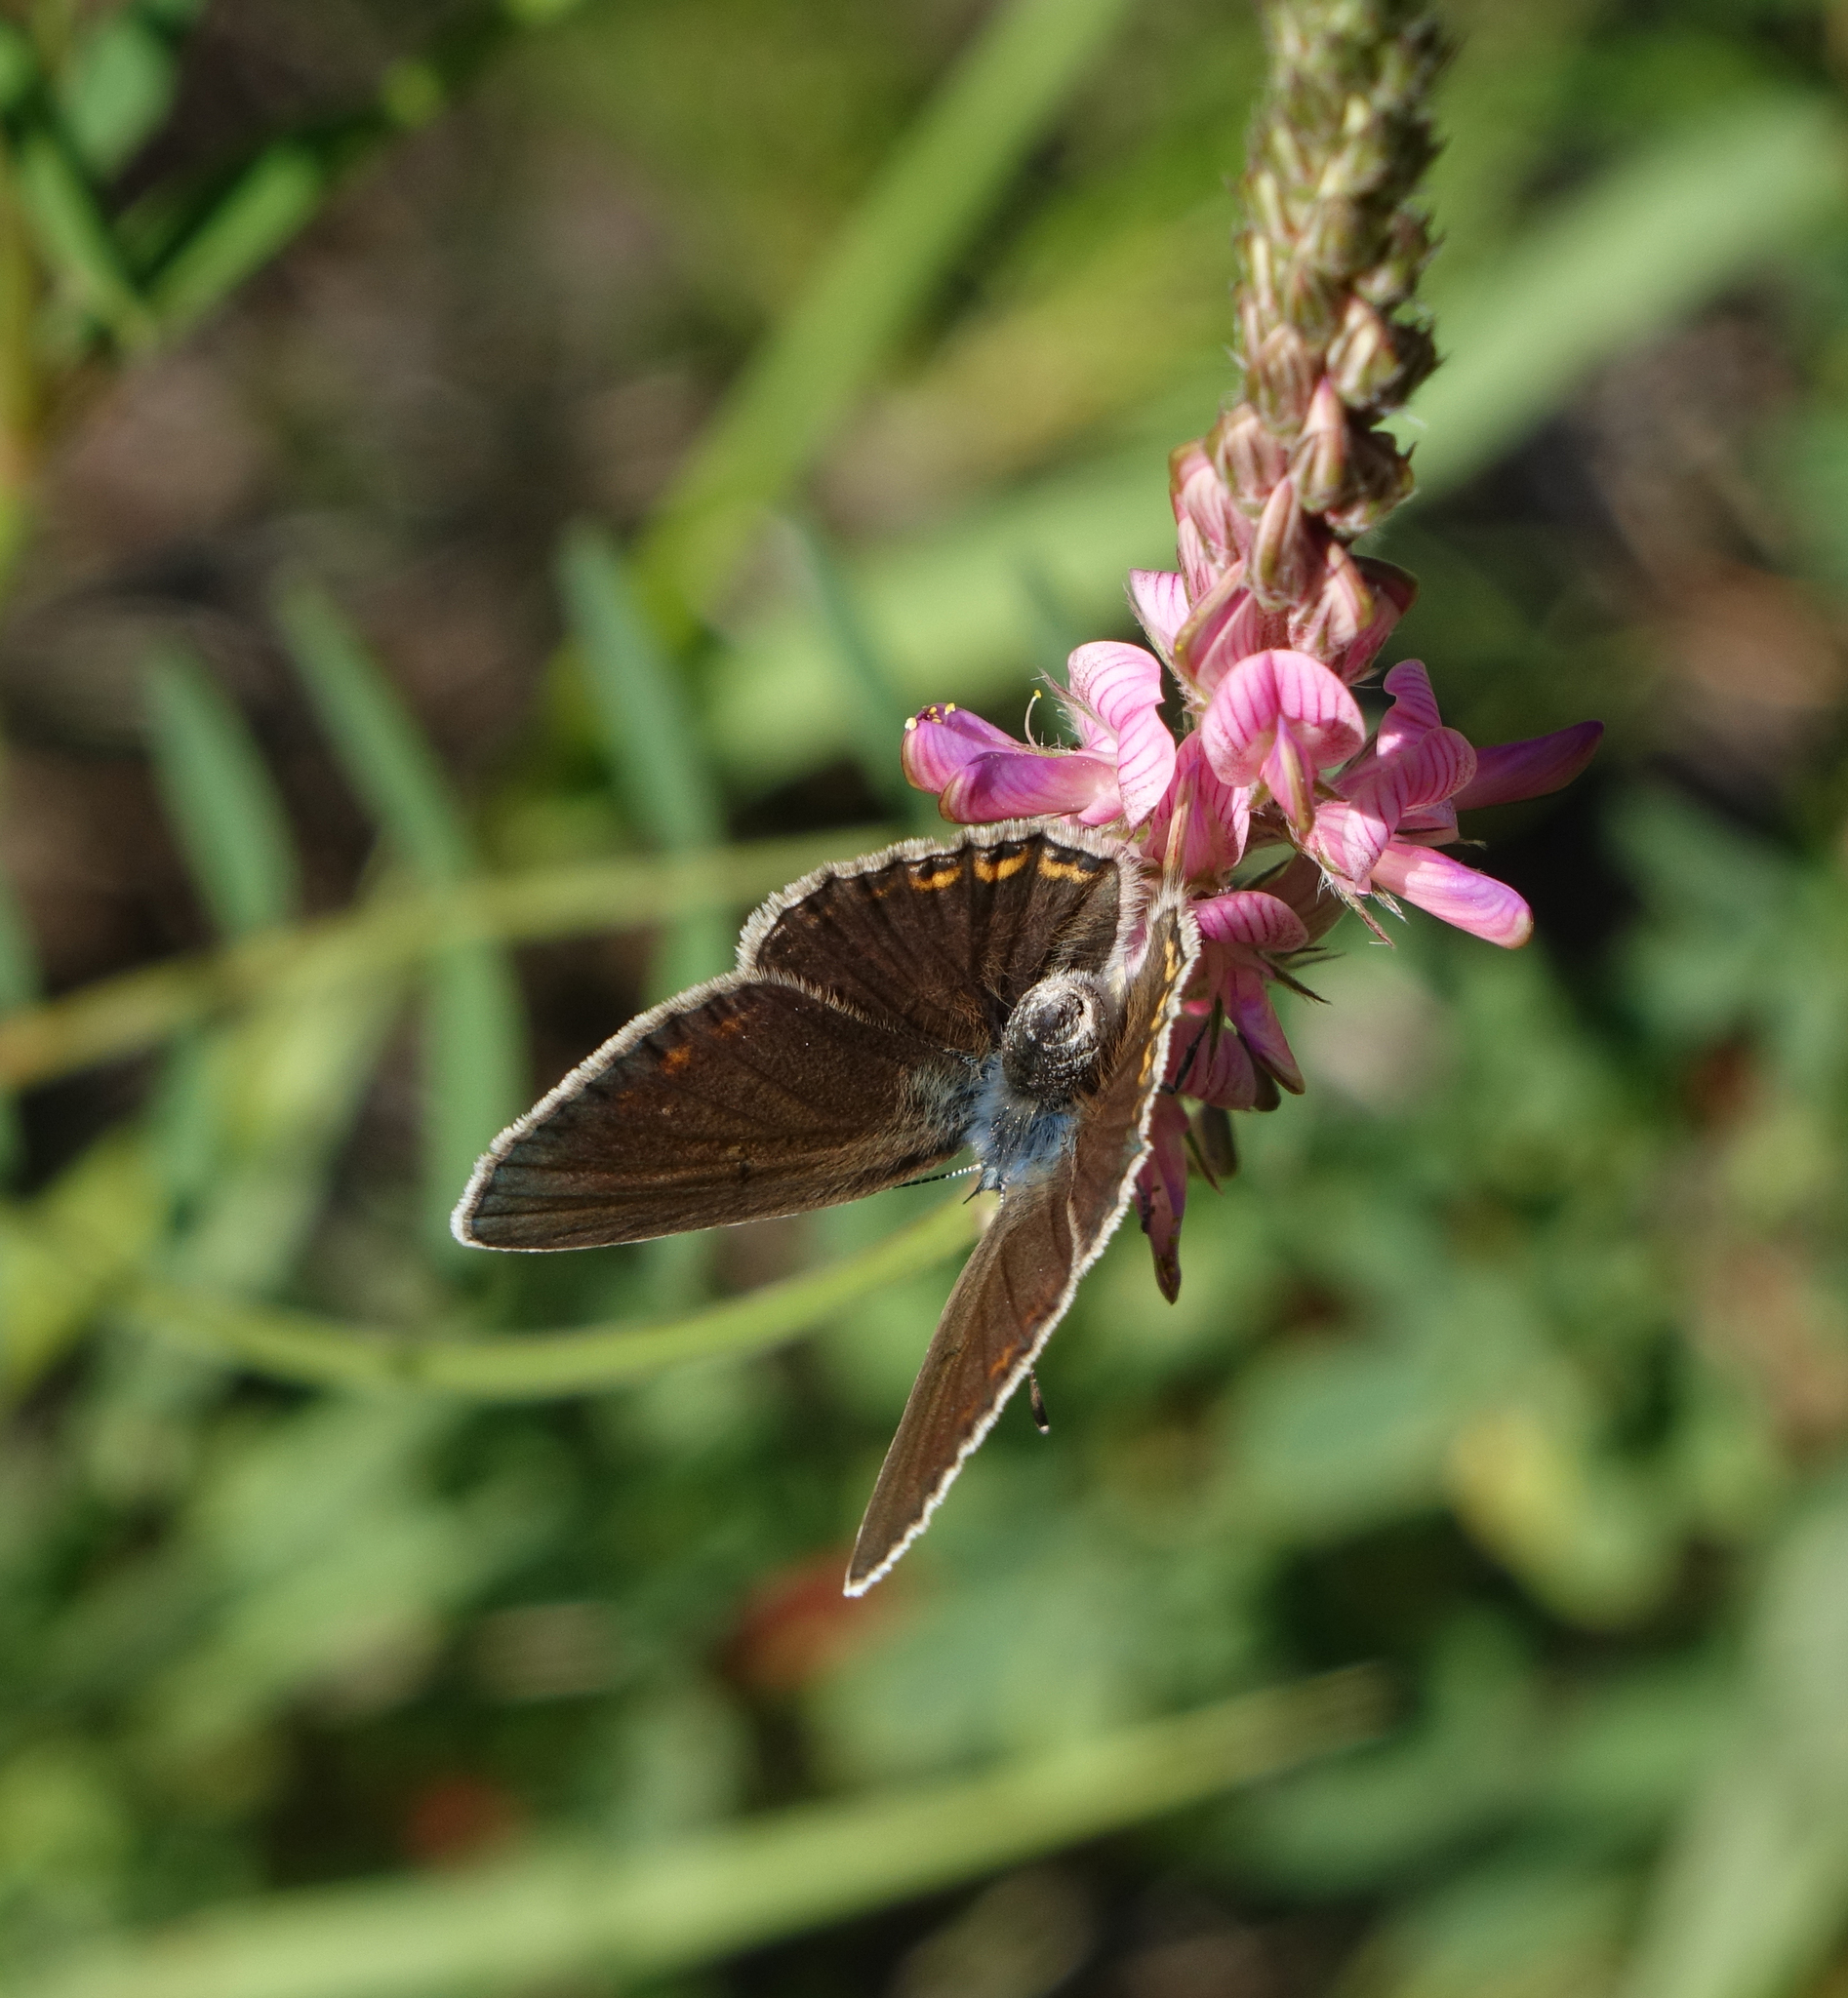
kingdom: Animalia
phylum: Arthropoda
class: Insecta
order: Lepidoptera
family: Lycaenidae
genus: Plebejus
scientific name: Plebejus amanda
